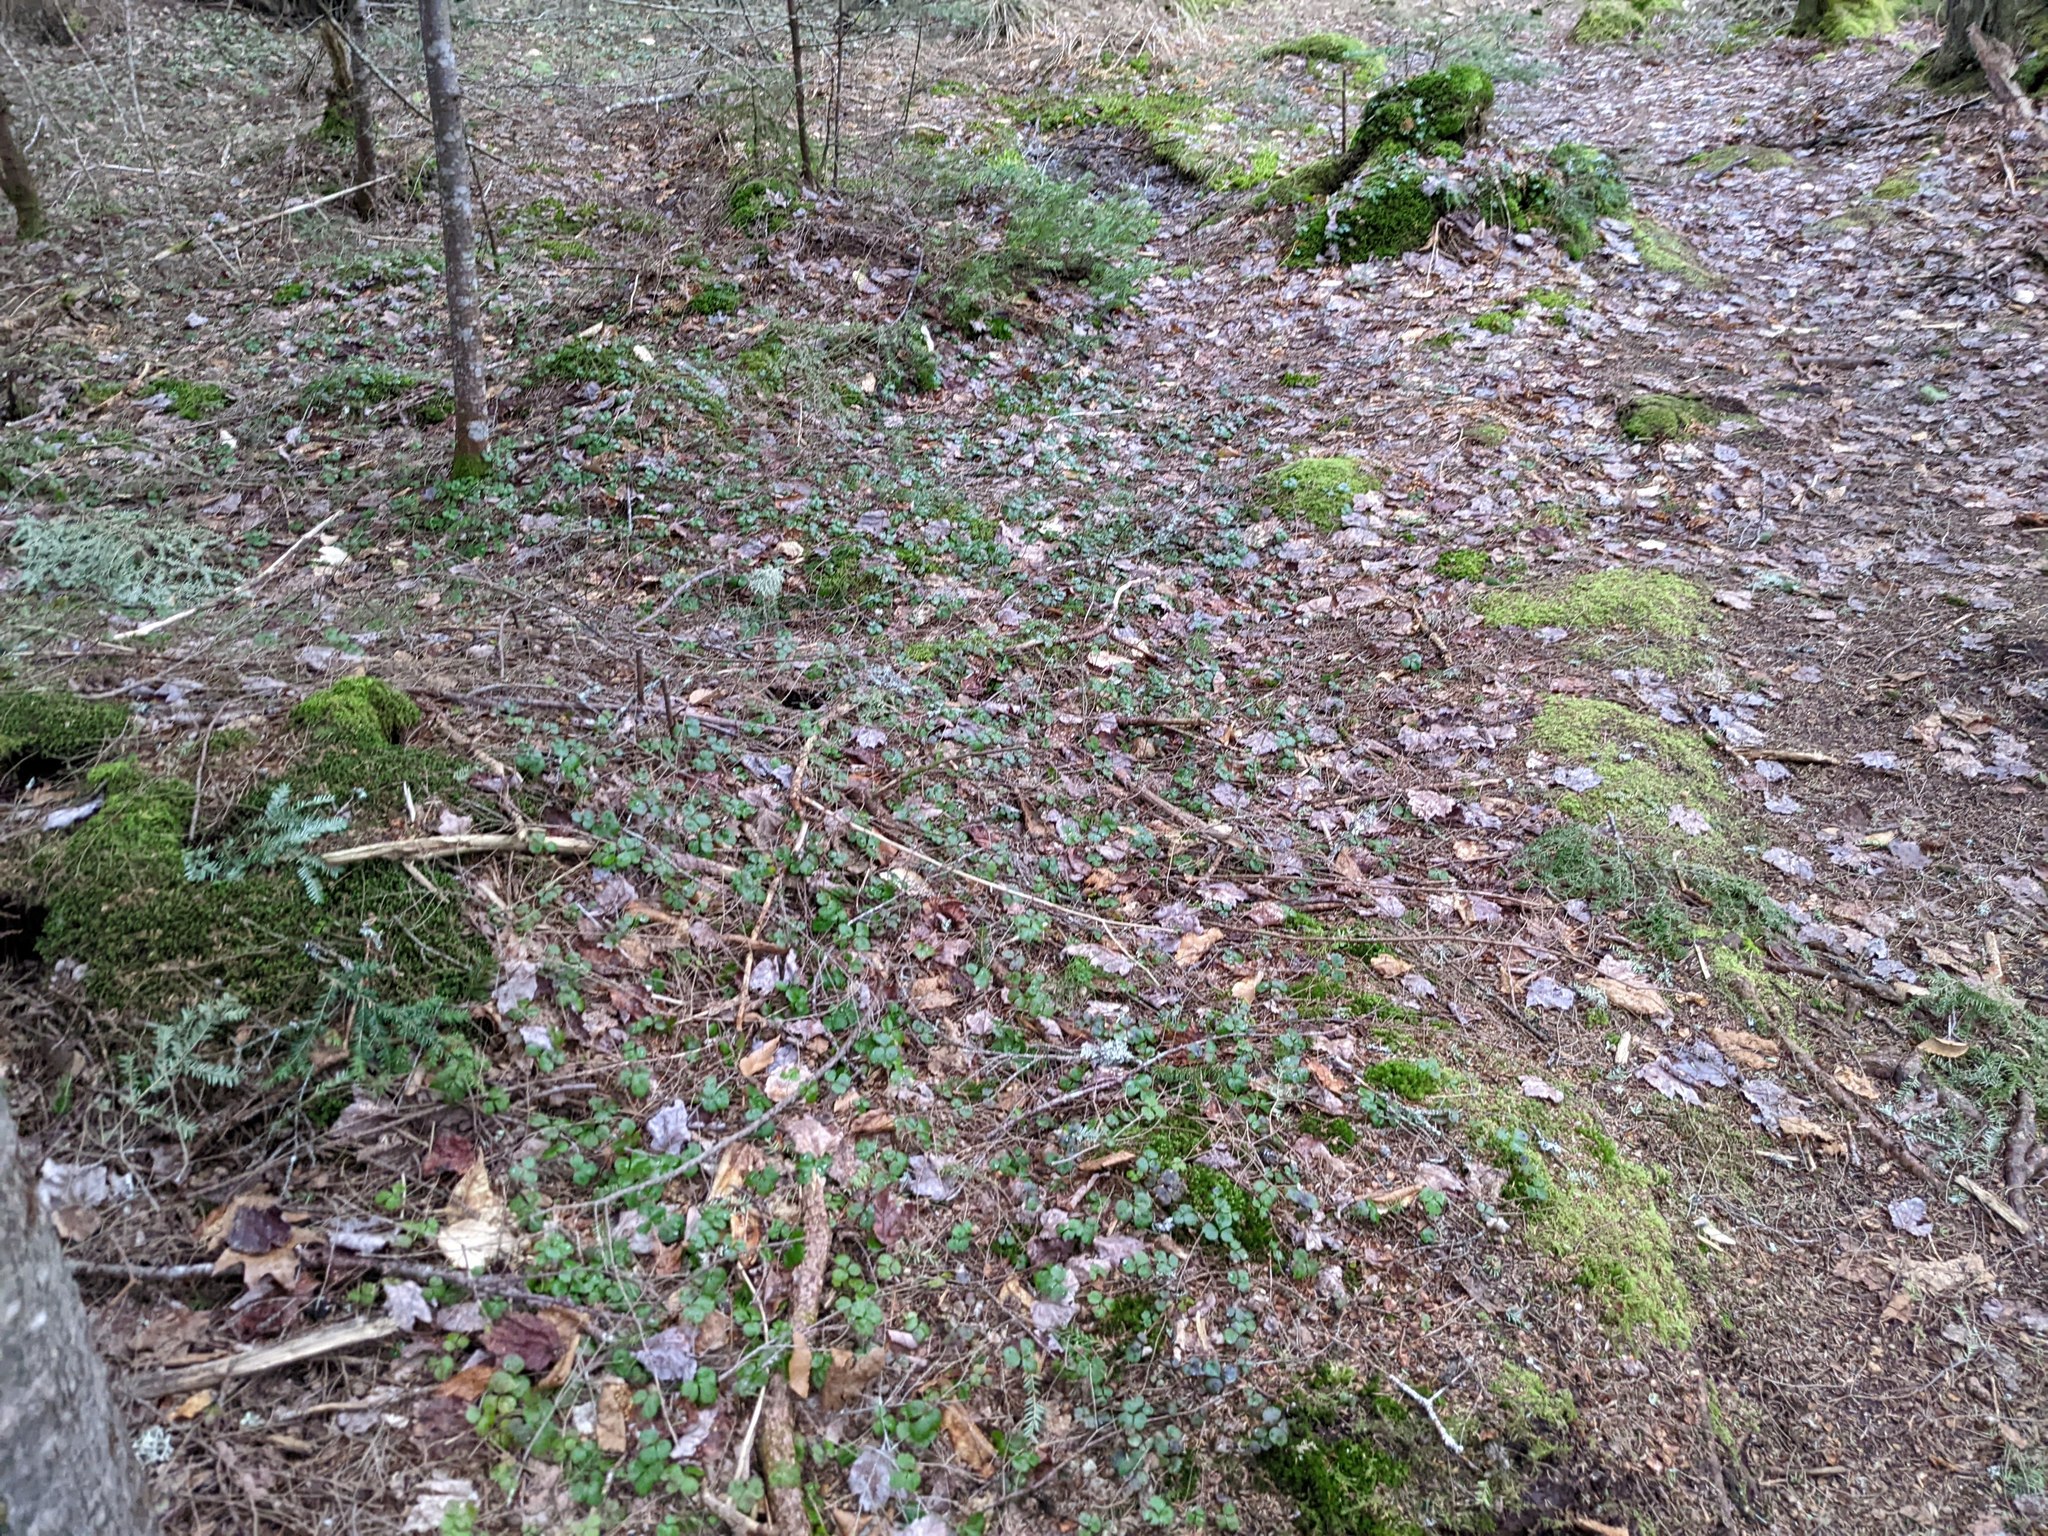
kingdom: Plantae
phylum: Tracheophyta
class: Magnoliopsida
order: Ranunculales
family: Ranunculaceae
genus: Coptis
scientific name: Coptis trifolia
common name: Canker-root
